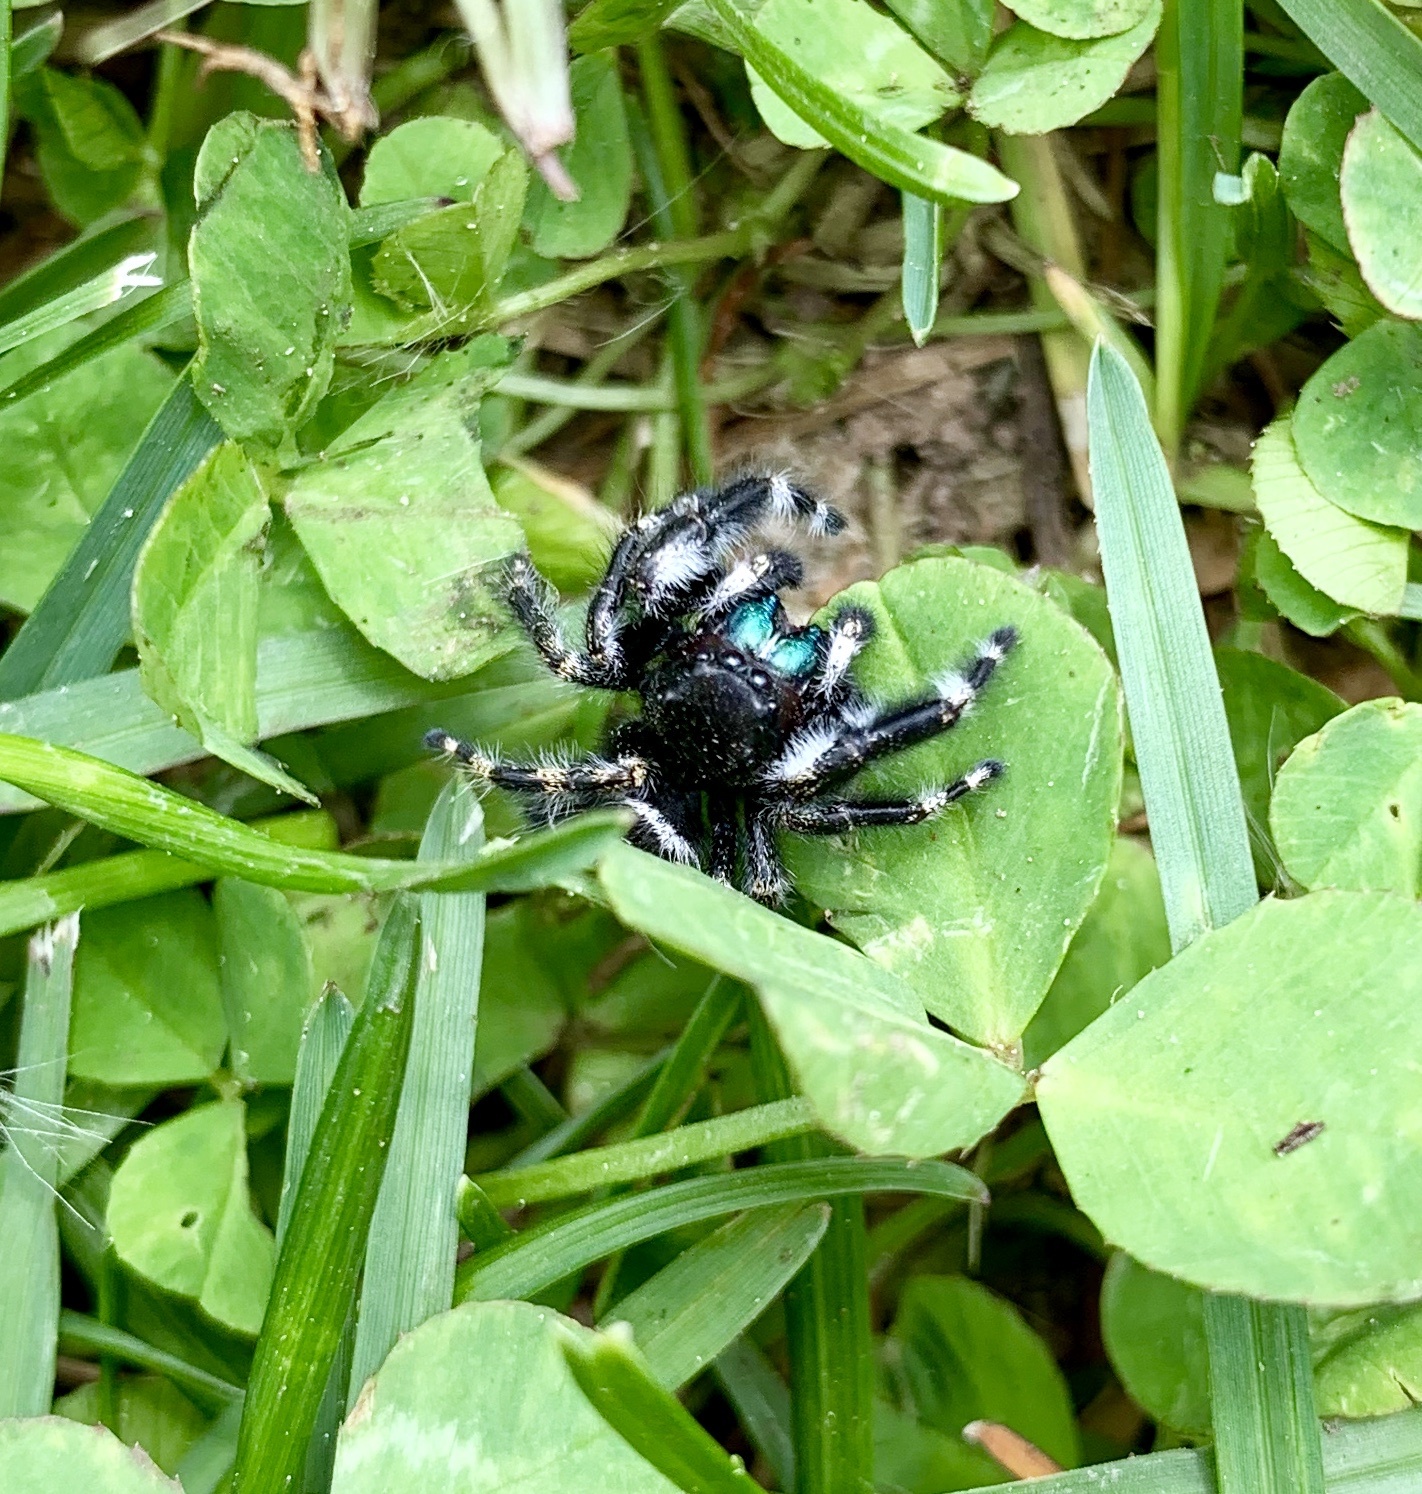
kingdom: Animalia
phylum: Arthropoda
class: Arachnida
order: Araneae
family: Salticidae
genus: Phidippus
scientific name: Phidippus audax
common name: Bold jumper
